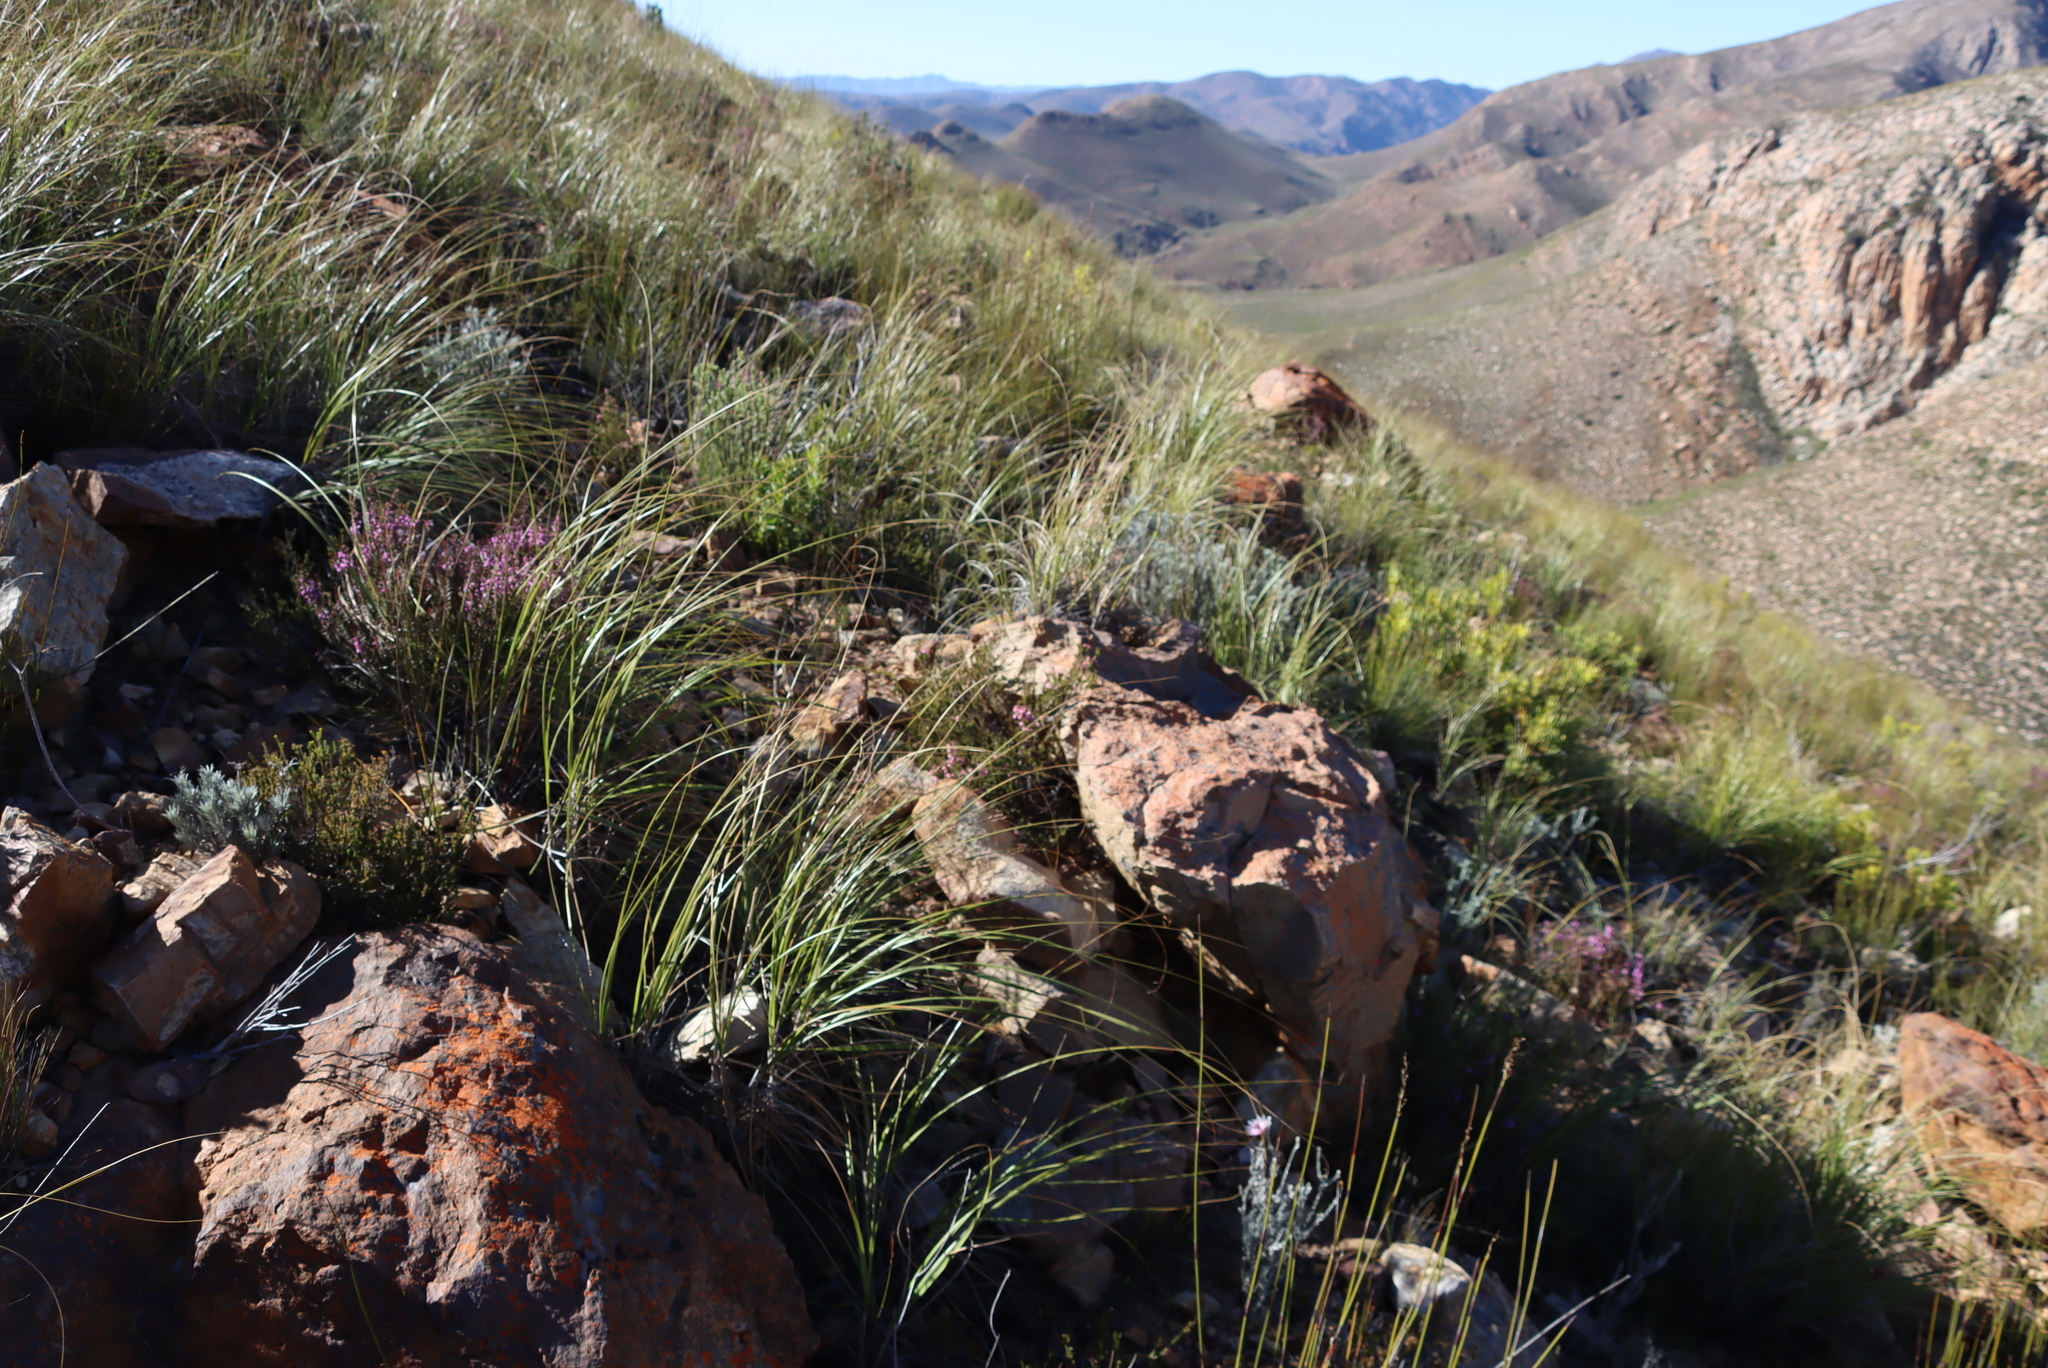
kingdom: Plantae
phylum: Tracheophyta
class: Liliopsida
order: Poales
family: Poaceae
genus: Capeochloa
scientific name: Capeochloa arundinacea
